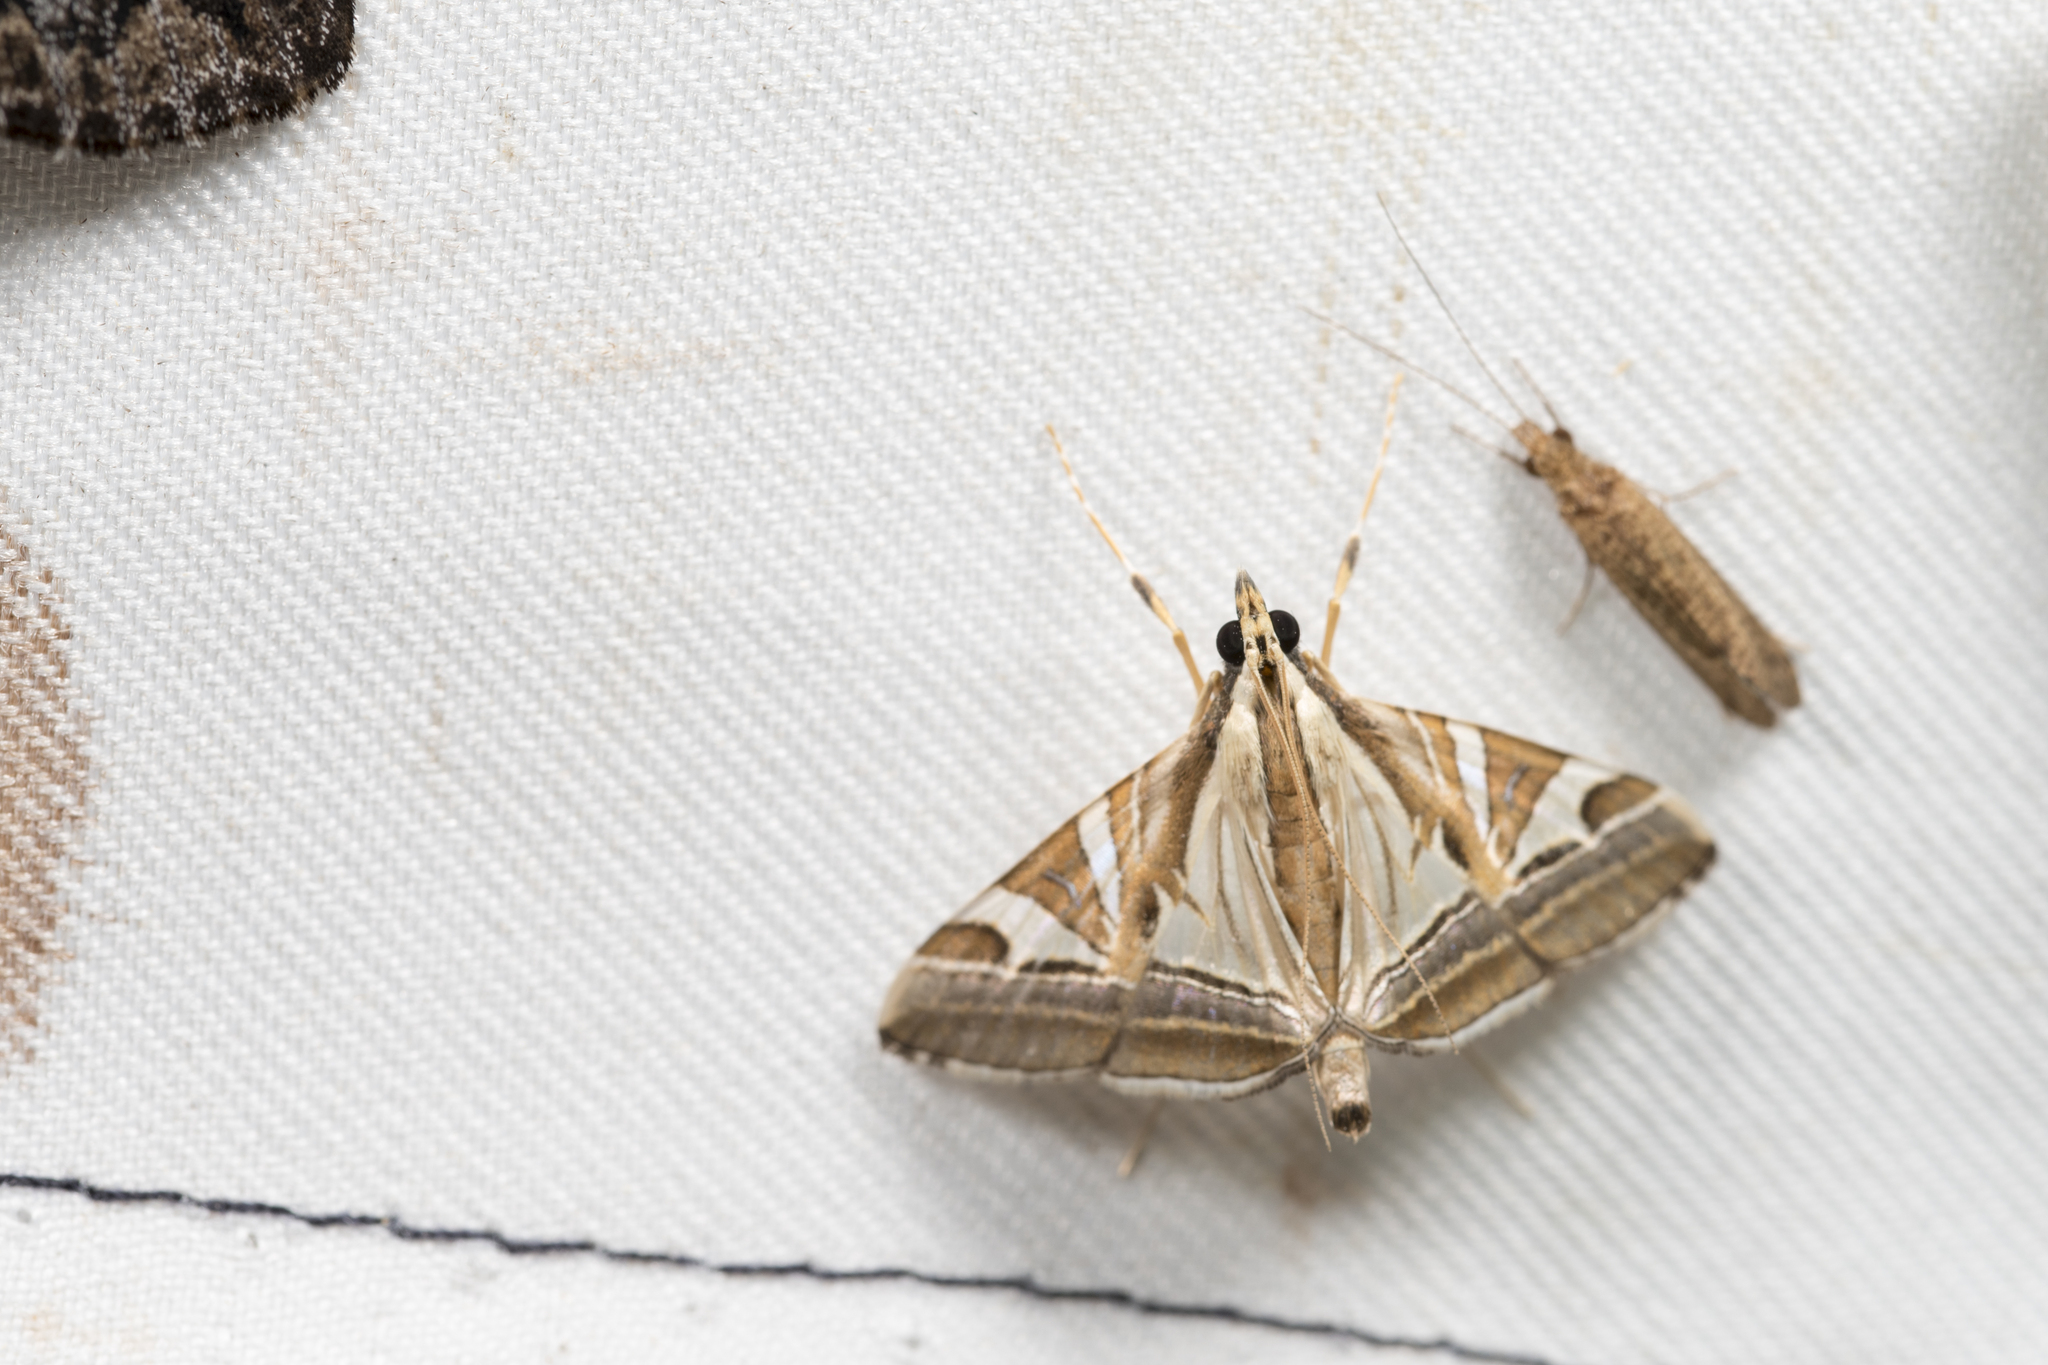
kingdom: Animalia
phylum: Arthropoda
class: Insecta
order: Lepidoptera
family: Crambidae
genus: Agrioglypta
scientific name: Agrioglypta itysalis
